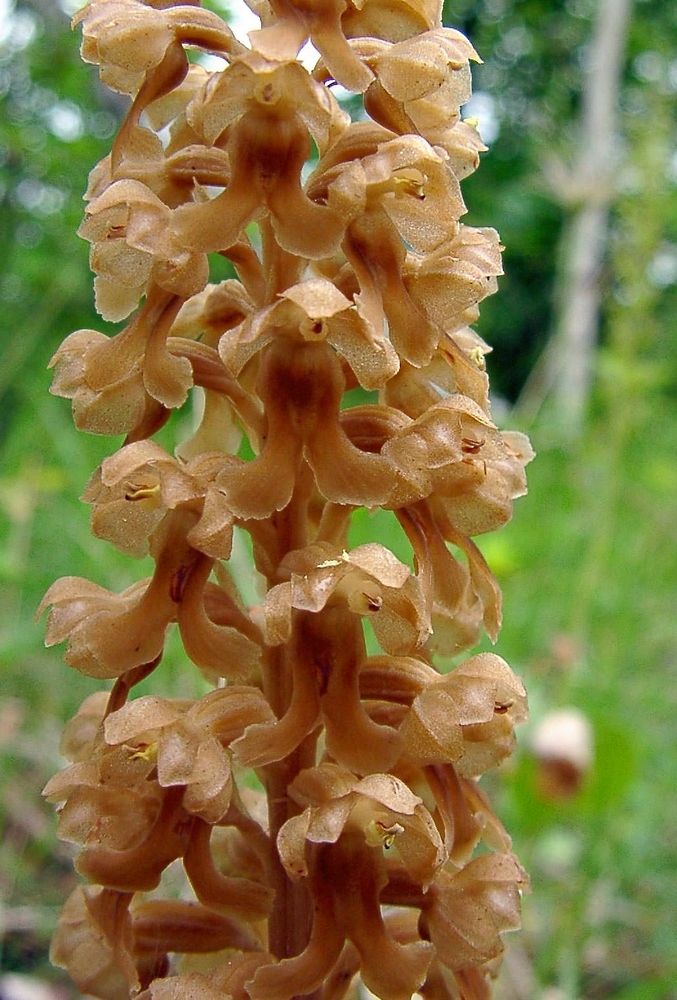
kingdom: Plantae
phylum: Tracheophyta
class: Liliopsida
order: Asparagales
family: Orchidaceae
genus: Neottia
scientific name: Neottia nidus-avis
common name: Bird's-nest orchid
